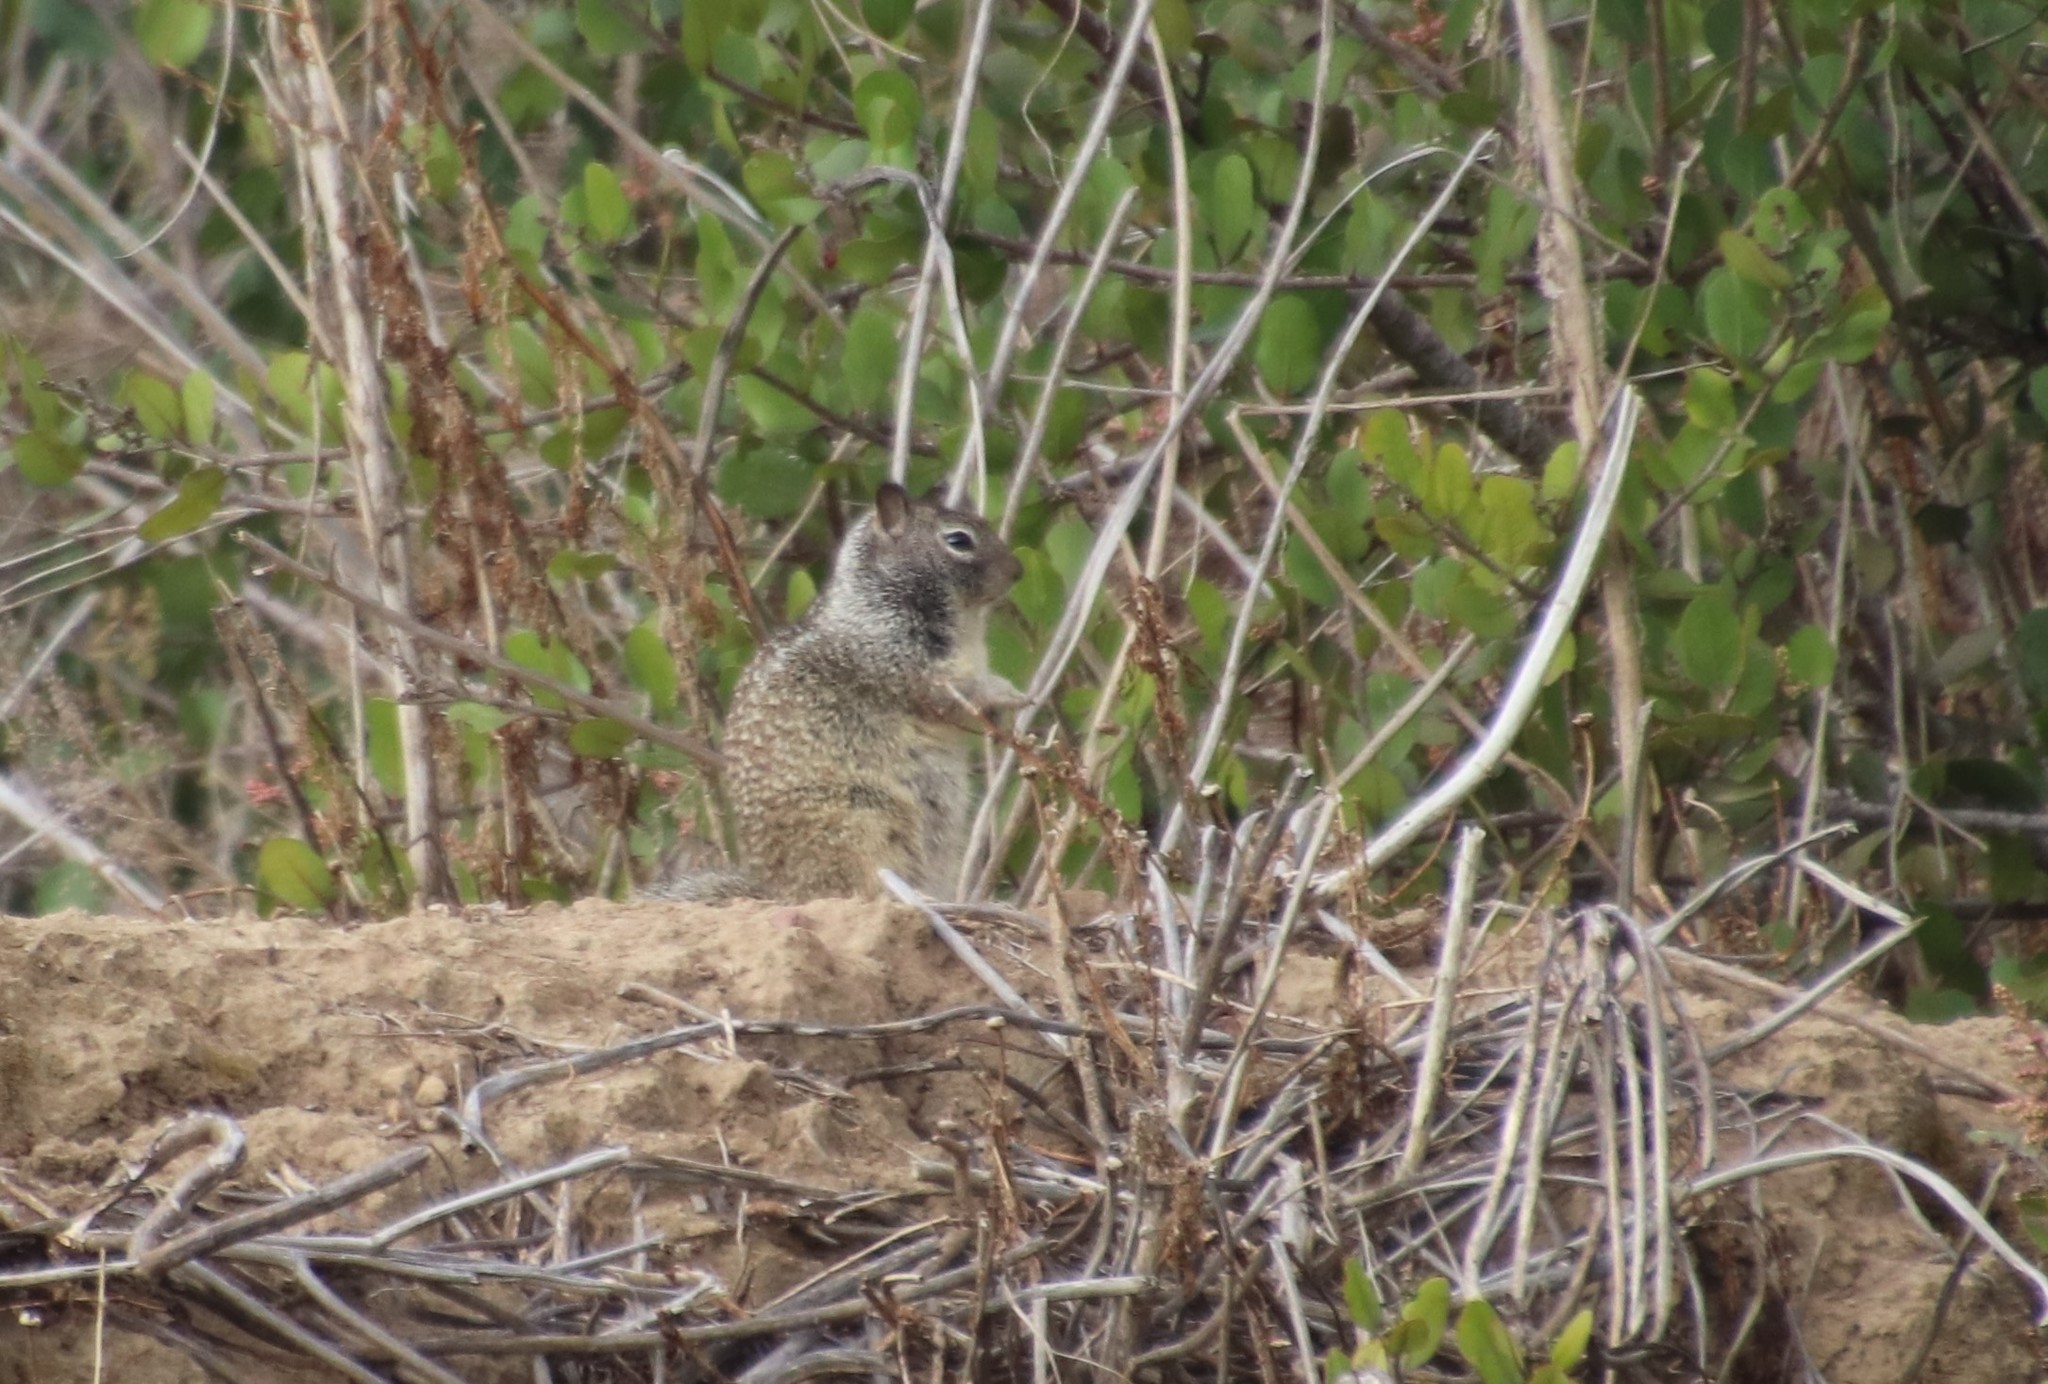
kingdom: Animalia
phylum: Chordata
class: Mammalia
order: Rodentia
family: Sciuridae
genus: Otospermophilus
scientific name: Otospermophilus beecheyi
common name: California ground squirrel
